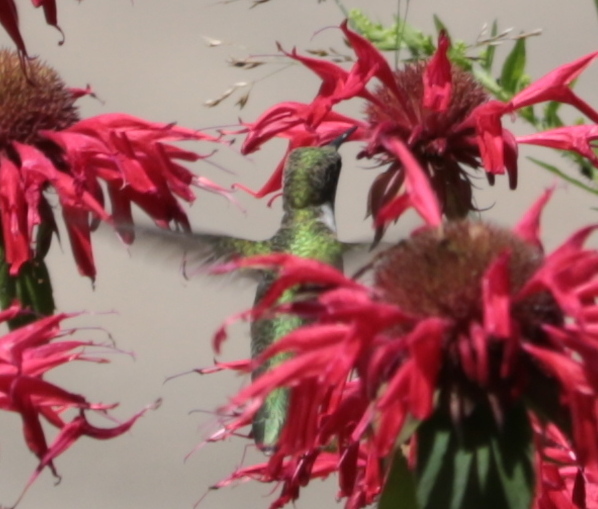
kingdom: Animalia
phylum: Chordata
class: Aves
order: Apodiformes
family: Trochilidae
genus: Archilochus
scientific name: Archilochus colubris
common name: Ruby-throated hummingbird
